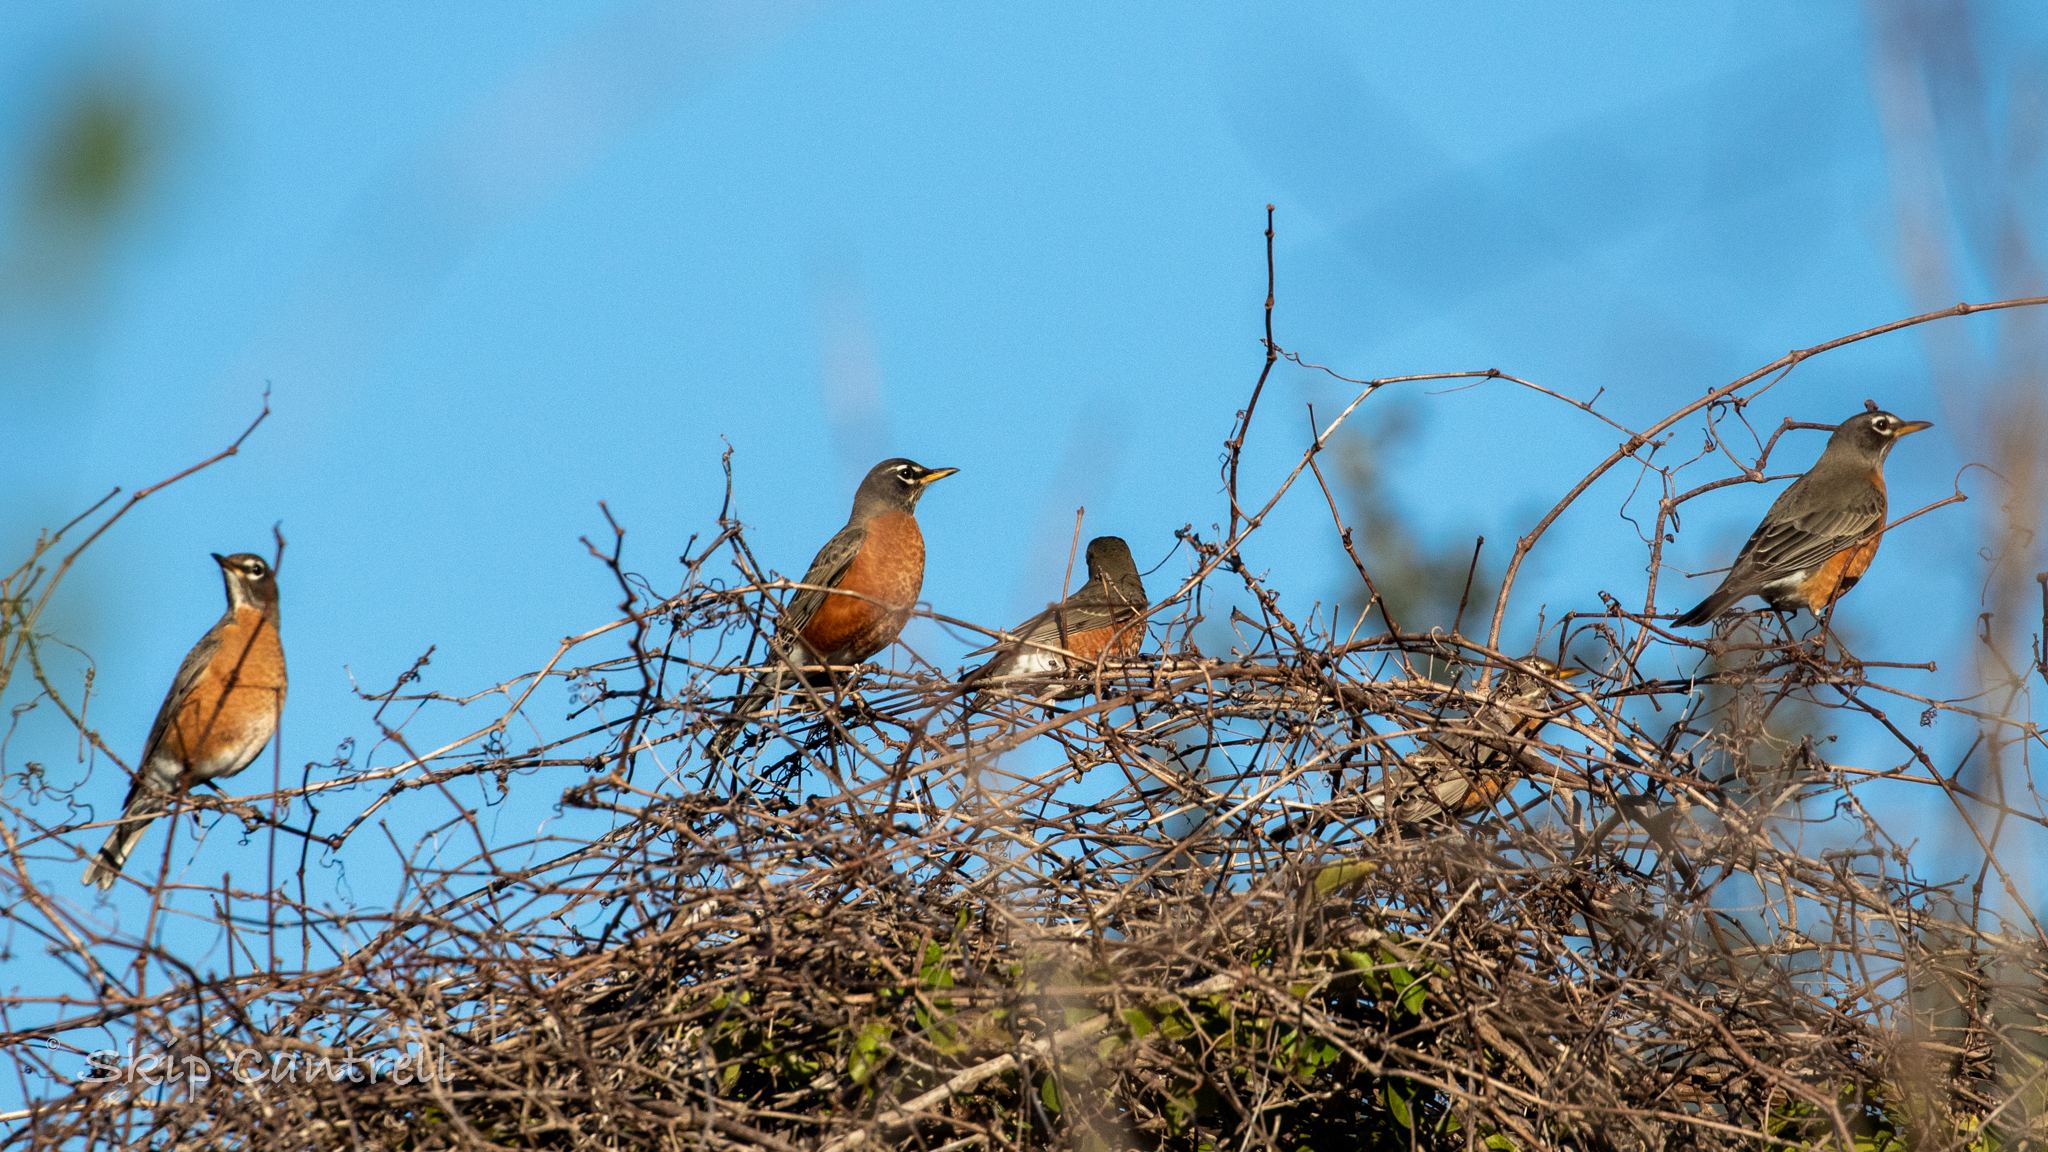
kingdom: Animalia
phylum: Chordata
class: Aves
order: Passeriformes
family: Turdidae
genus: Turdus
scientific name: Turdus migratorius
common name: American robin
